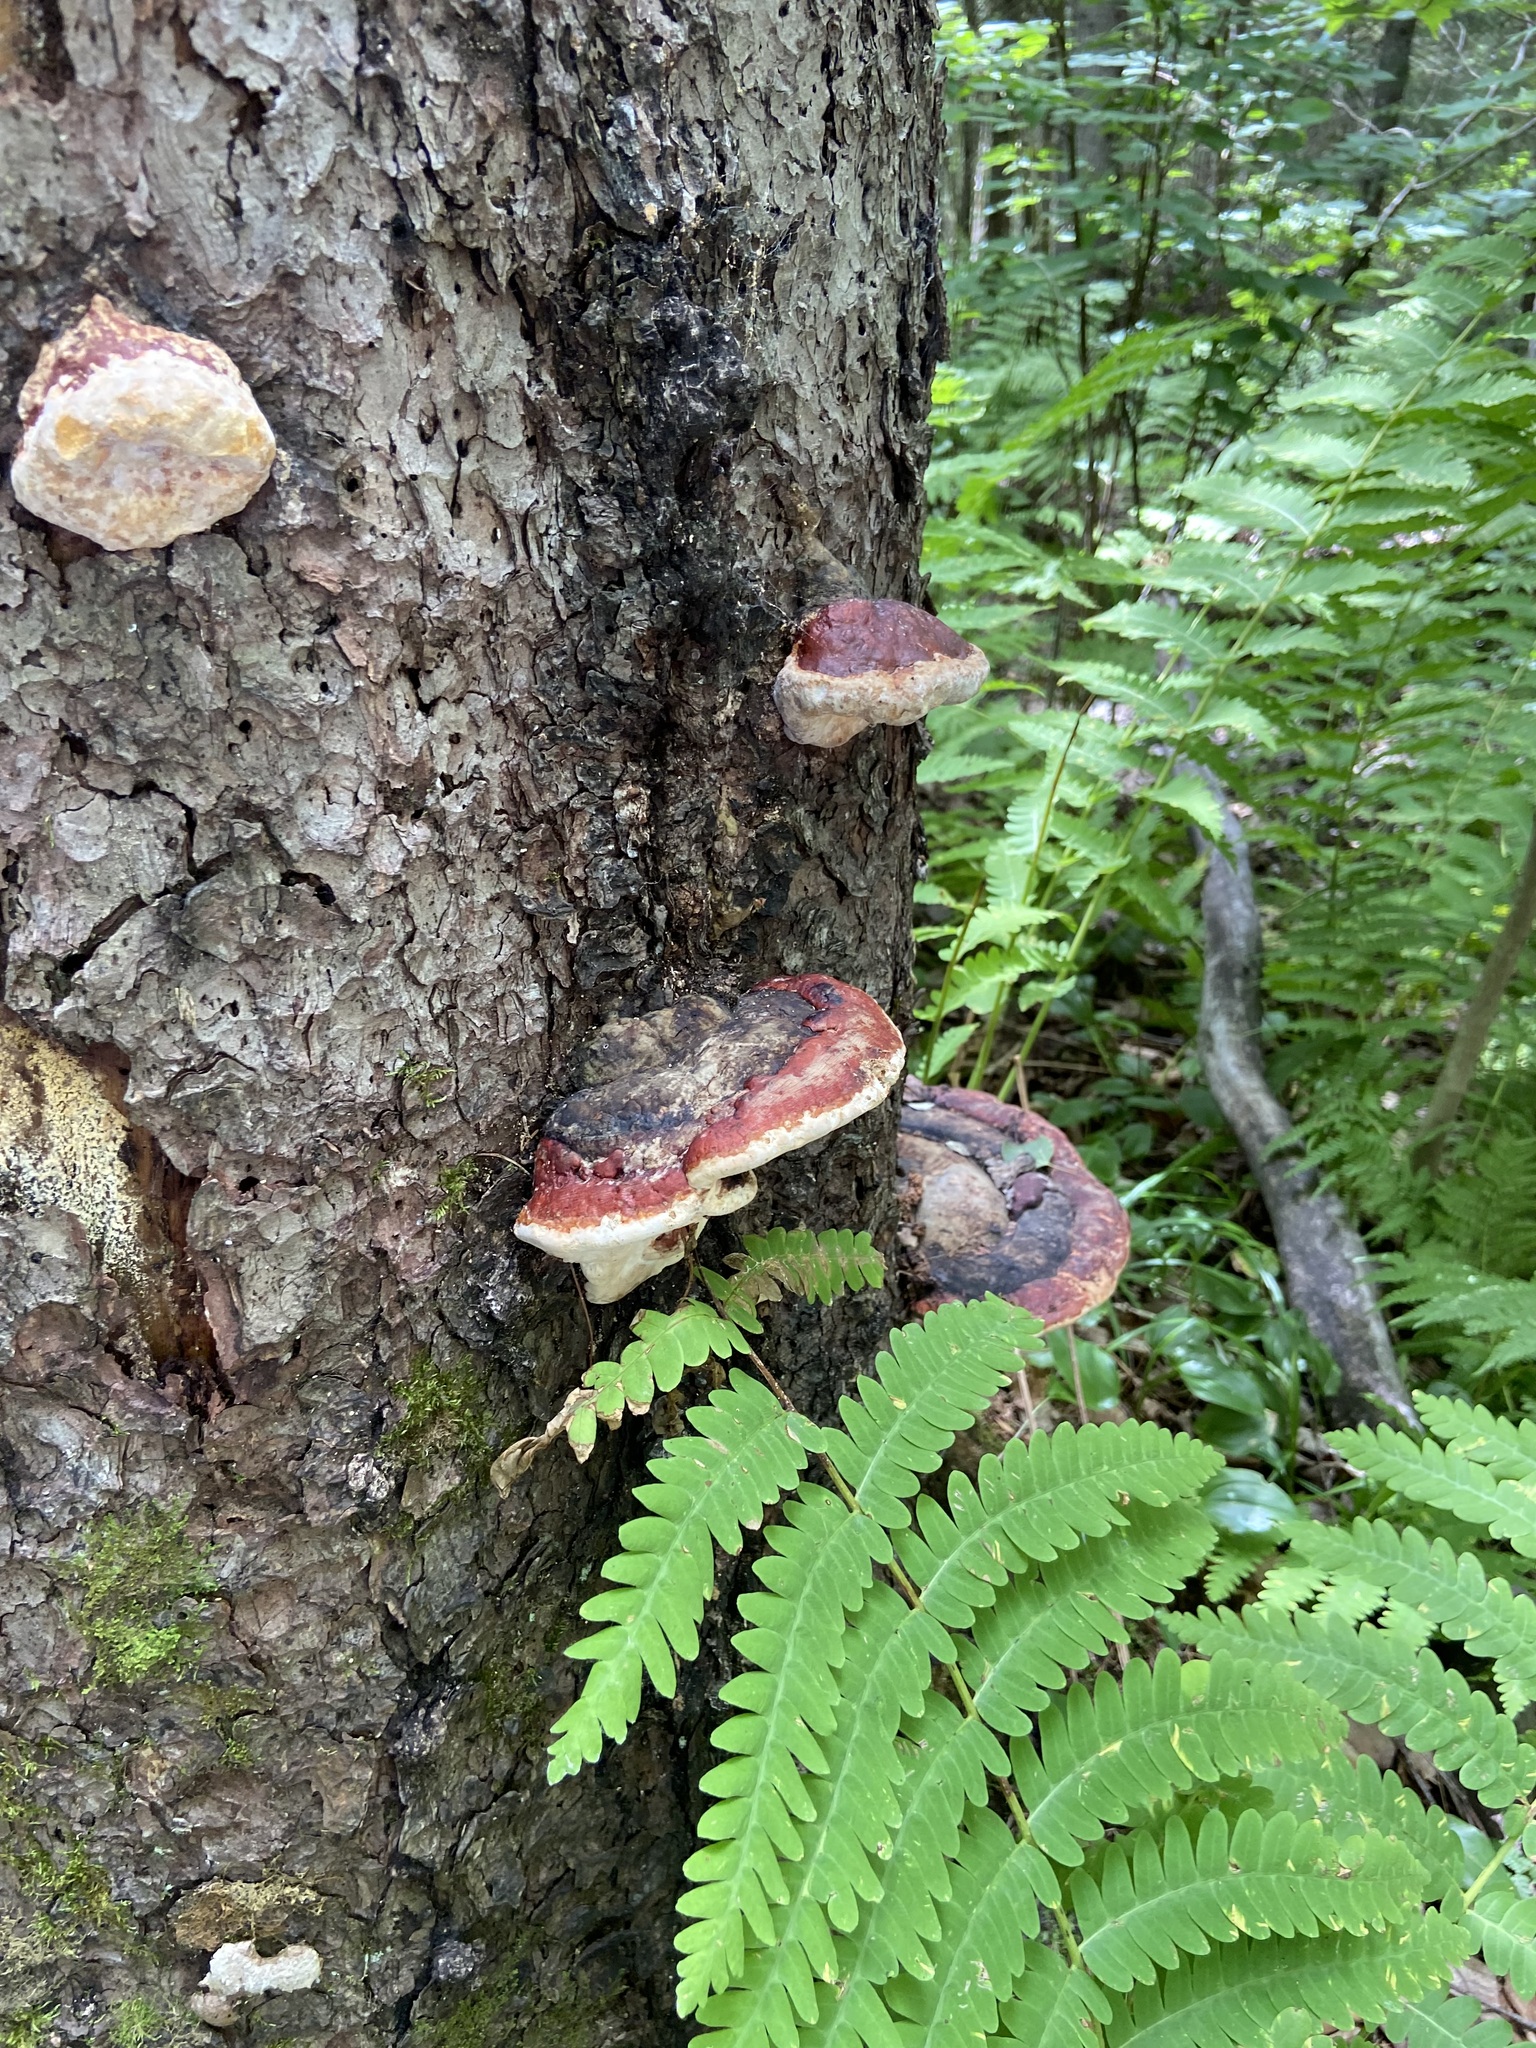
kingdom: Fungi
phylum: Basidiomycota
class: Agaricomycetes
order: Polyporales
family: Fomitopsidaceae
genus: Fomitopsis
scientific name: Fomitopsis mounceae
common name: Northern red belt
